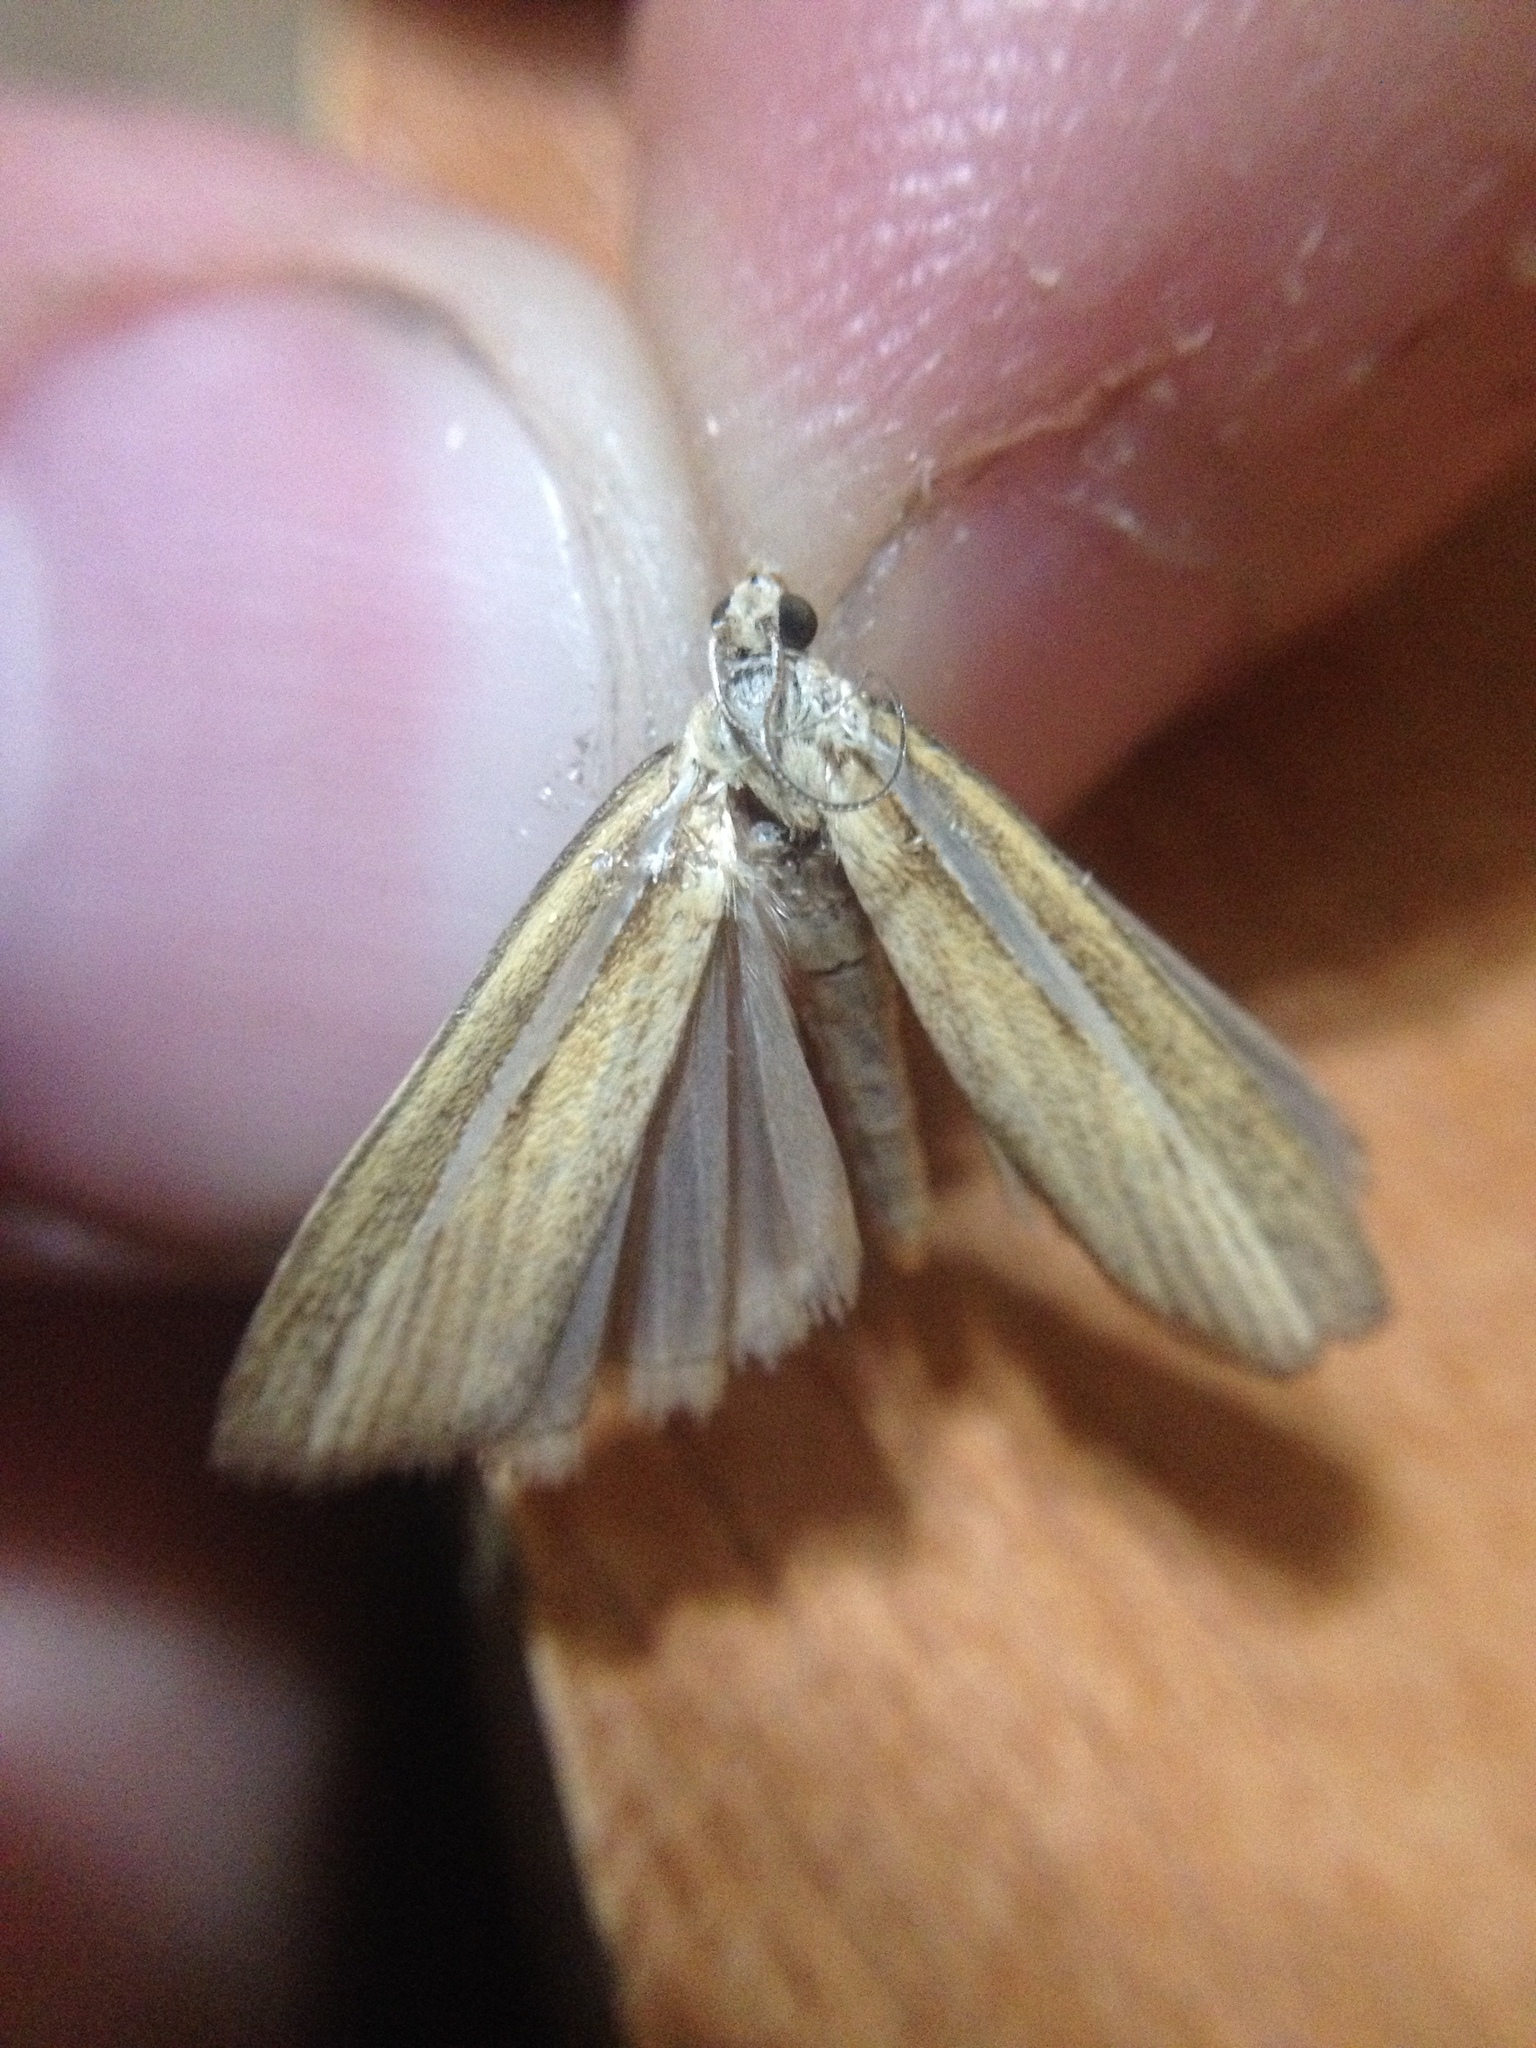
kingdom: Animalia
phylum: Arthropoda
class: Insecta
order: Lepidoptera
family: Crambidae
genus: Agriphila
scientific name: Agriphila selasella
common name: Pale-streak grass-veneer
